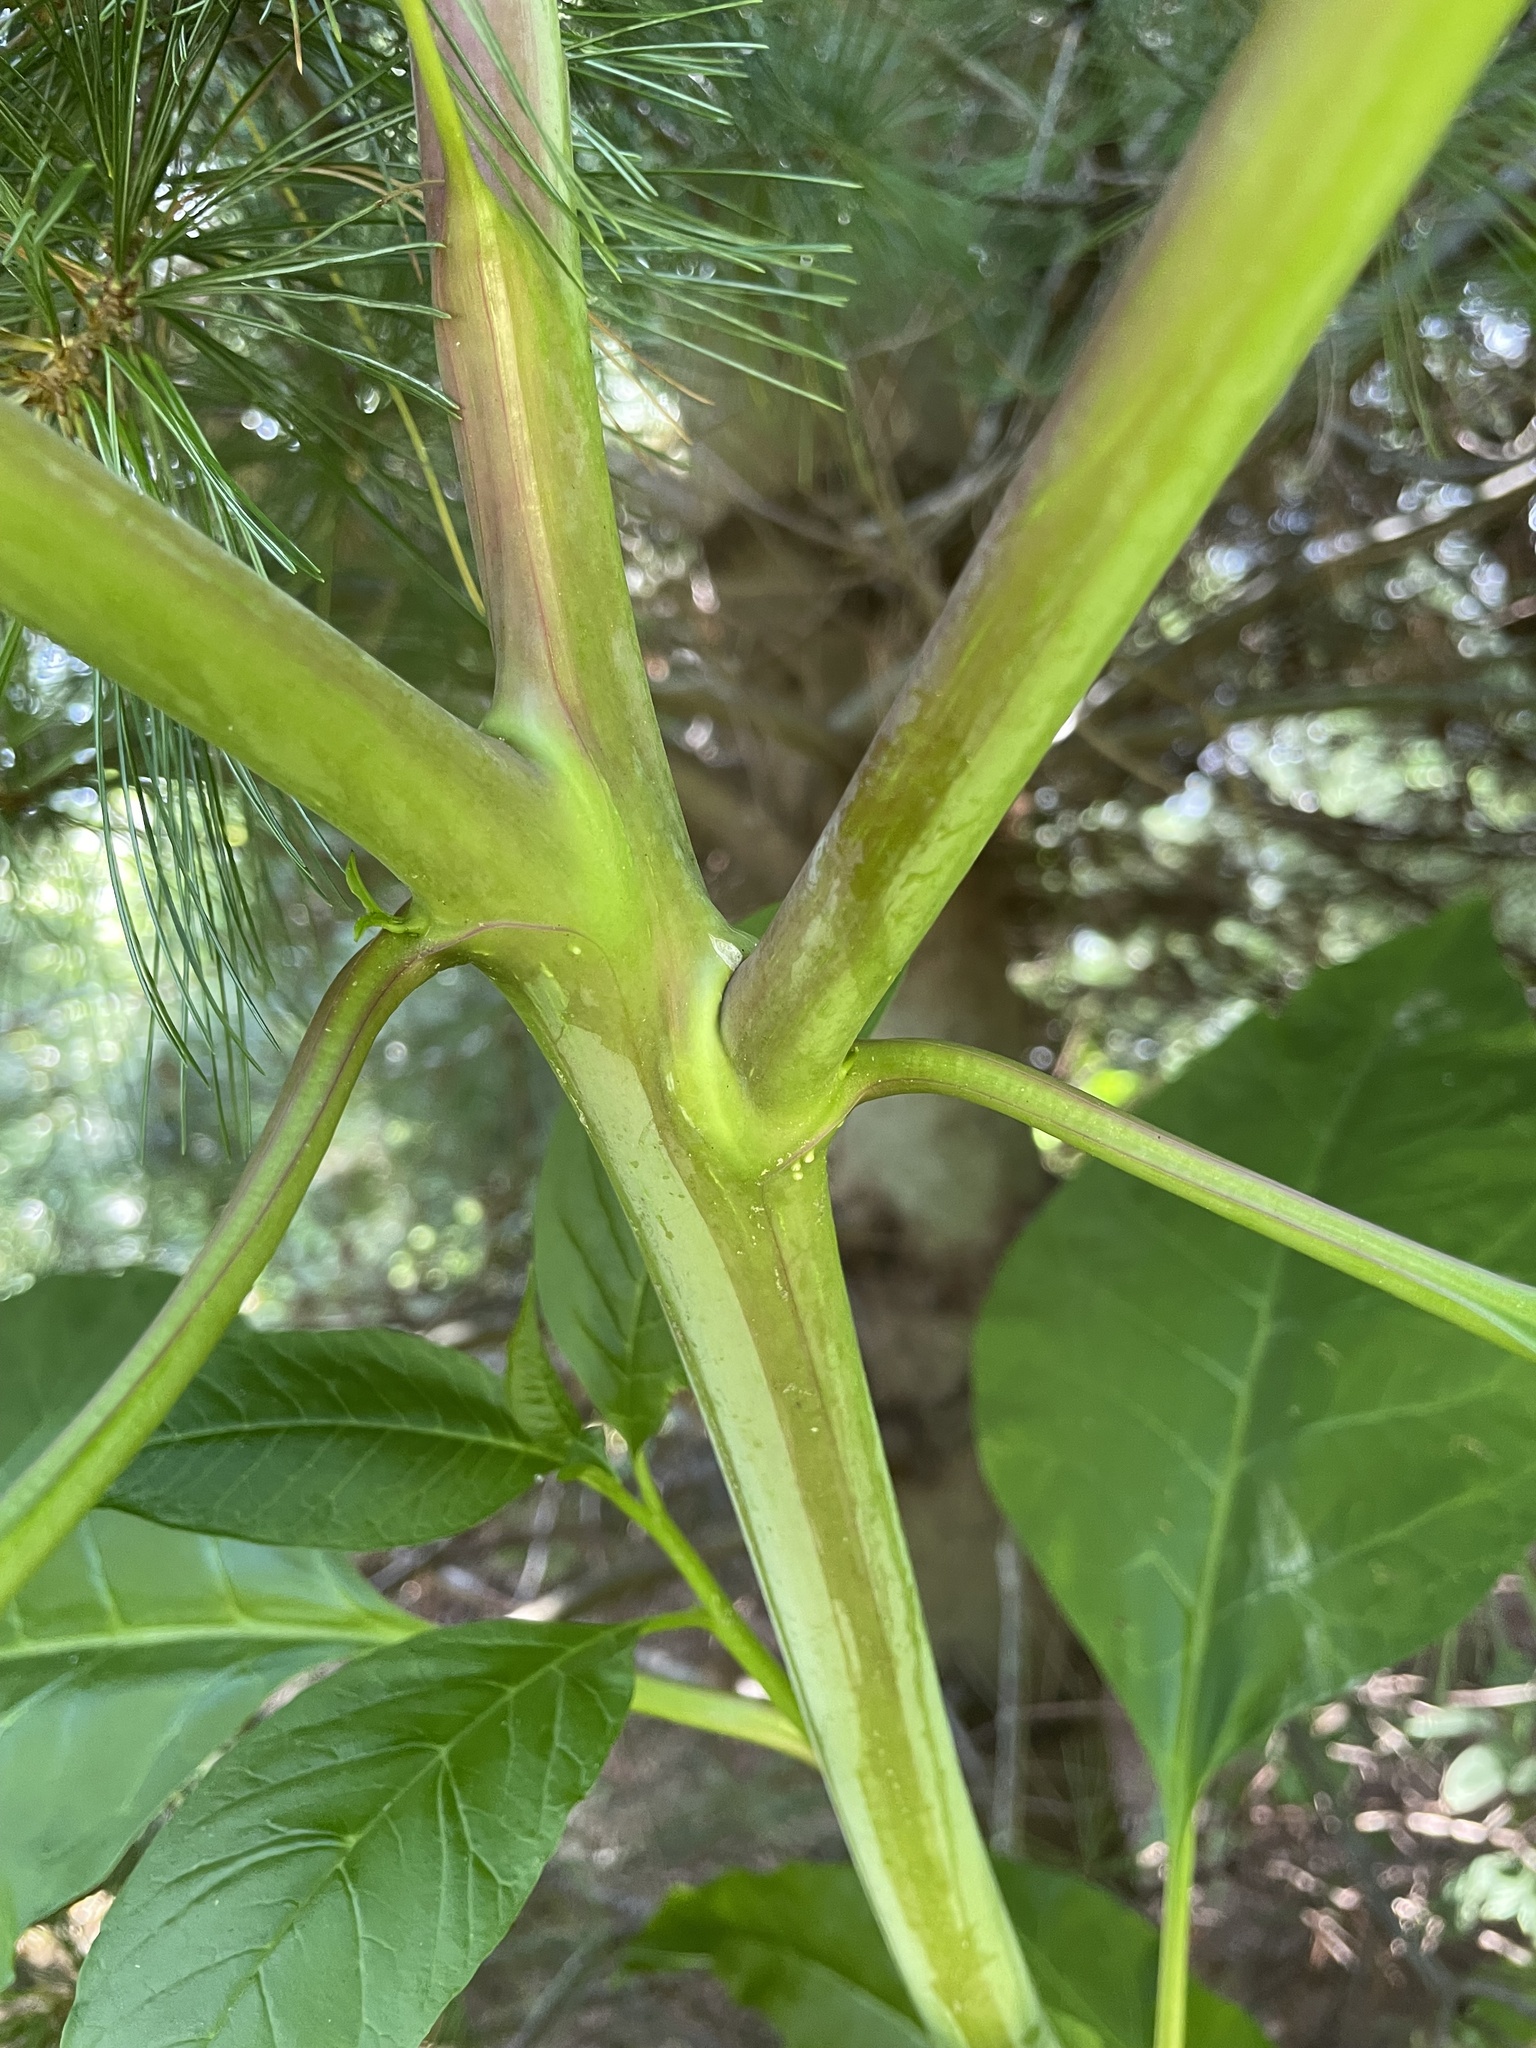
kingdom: Plantae
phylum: Tracheophyta
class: Magnoliopsida
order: Caryophyllales
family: Phytolaccaceae
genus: Phytolacca
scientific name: Phytolacca americana
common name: American pokeweed
